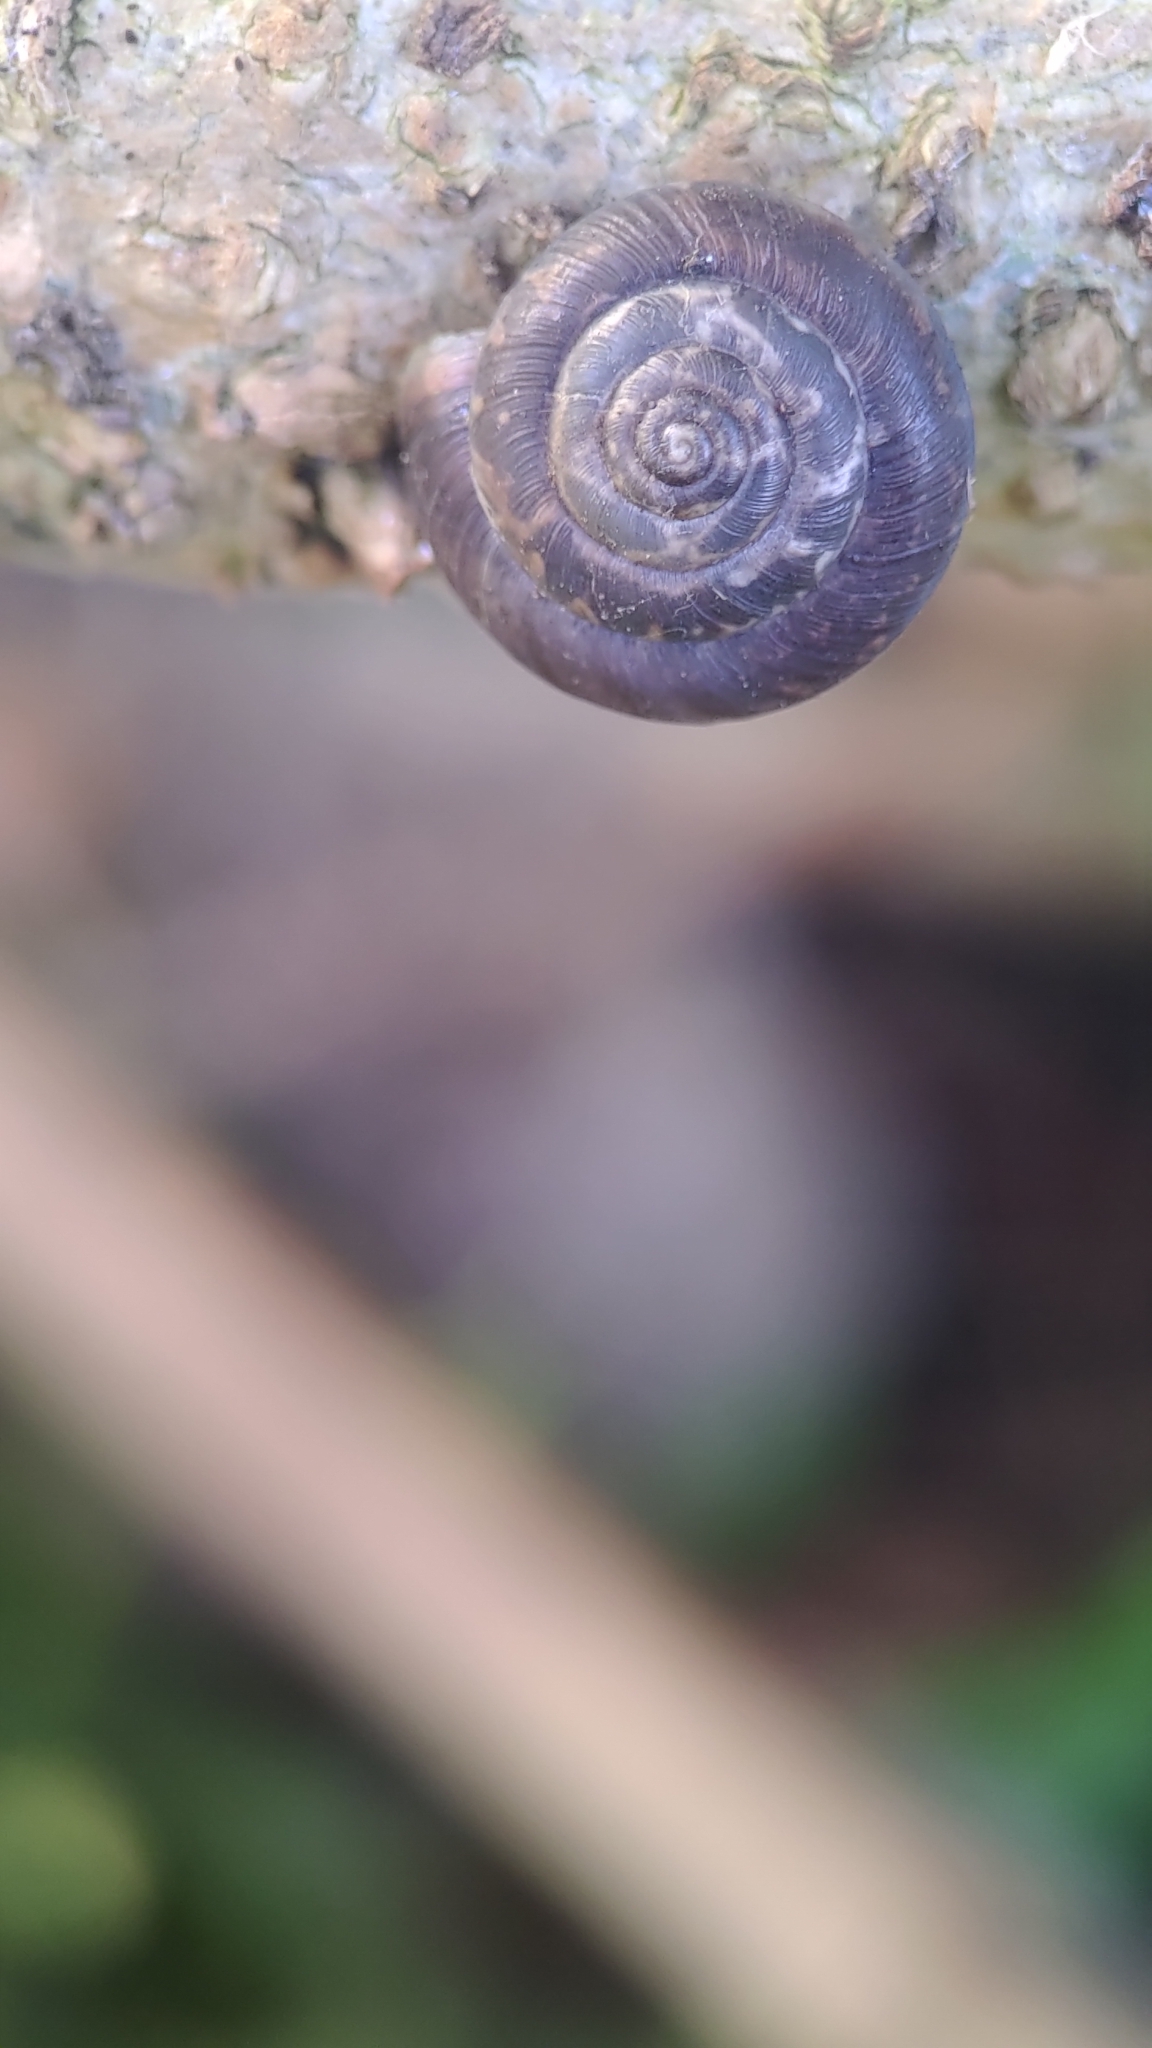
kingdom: Animalia
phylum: Mollusca
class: Gastropoda
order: Stylommatophora
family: Hygromiidae
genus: Trochulus
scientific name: Trochulus striolatus
